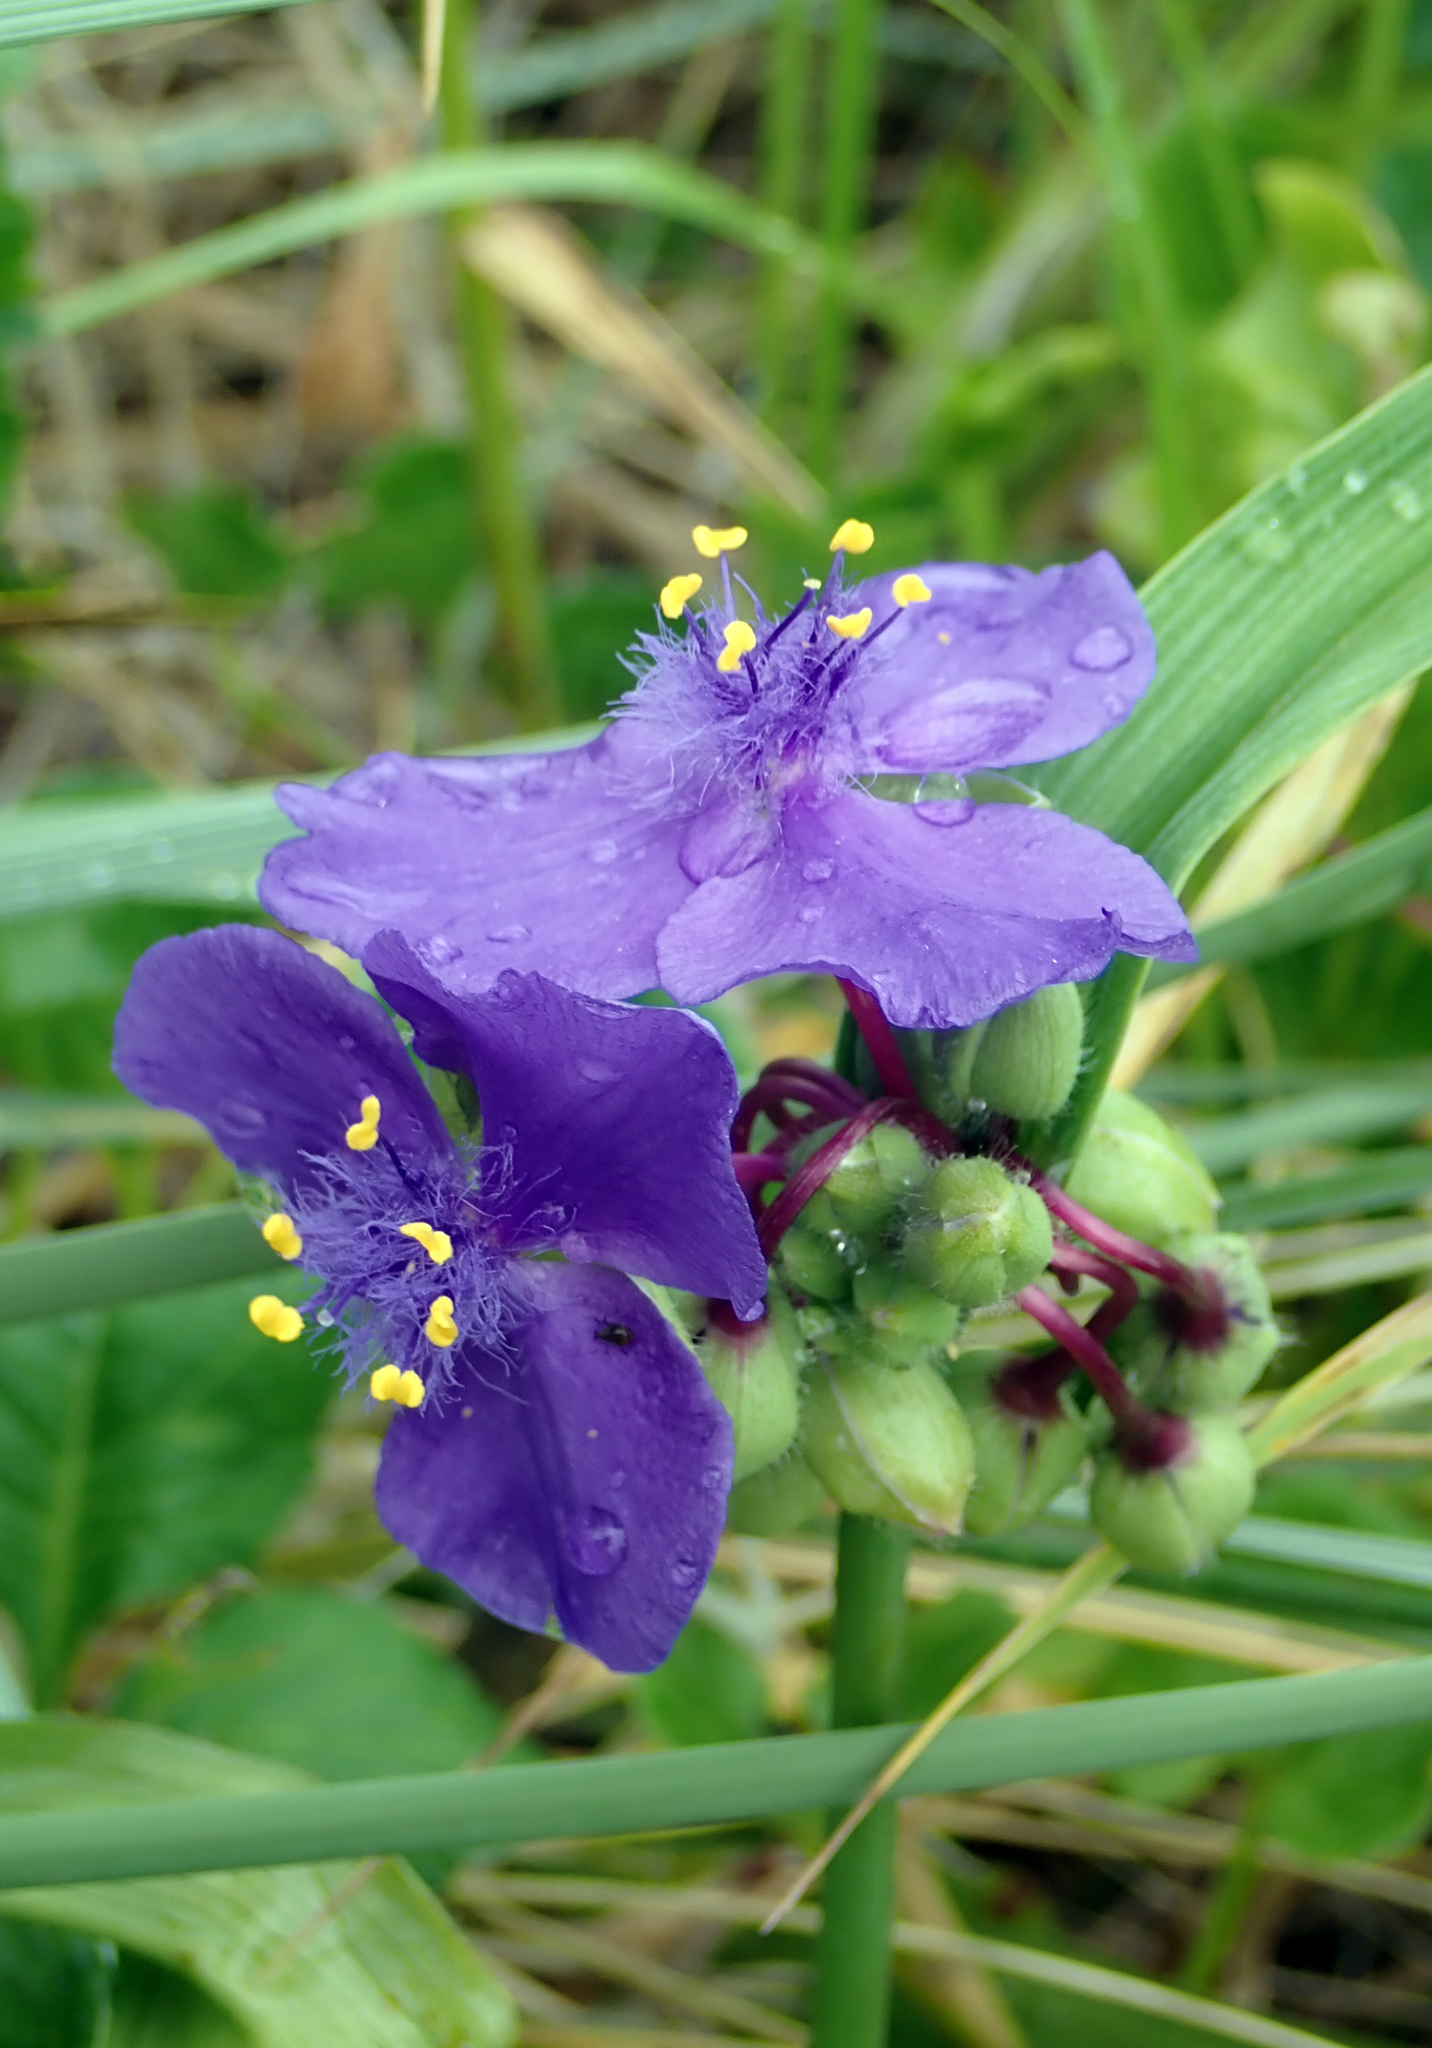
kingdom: Plantae
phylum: Tracheophyta
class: Liliopsida
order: Commelinales
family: Commelinaceae
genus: Tradescantia
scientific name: Tradescantia virginiana
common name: Spiderwort
